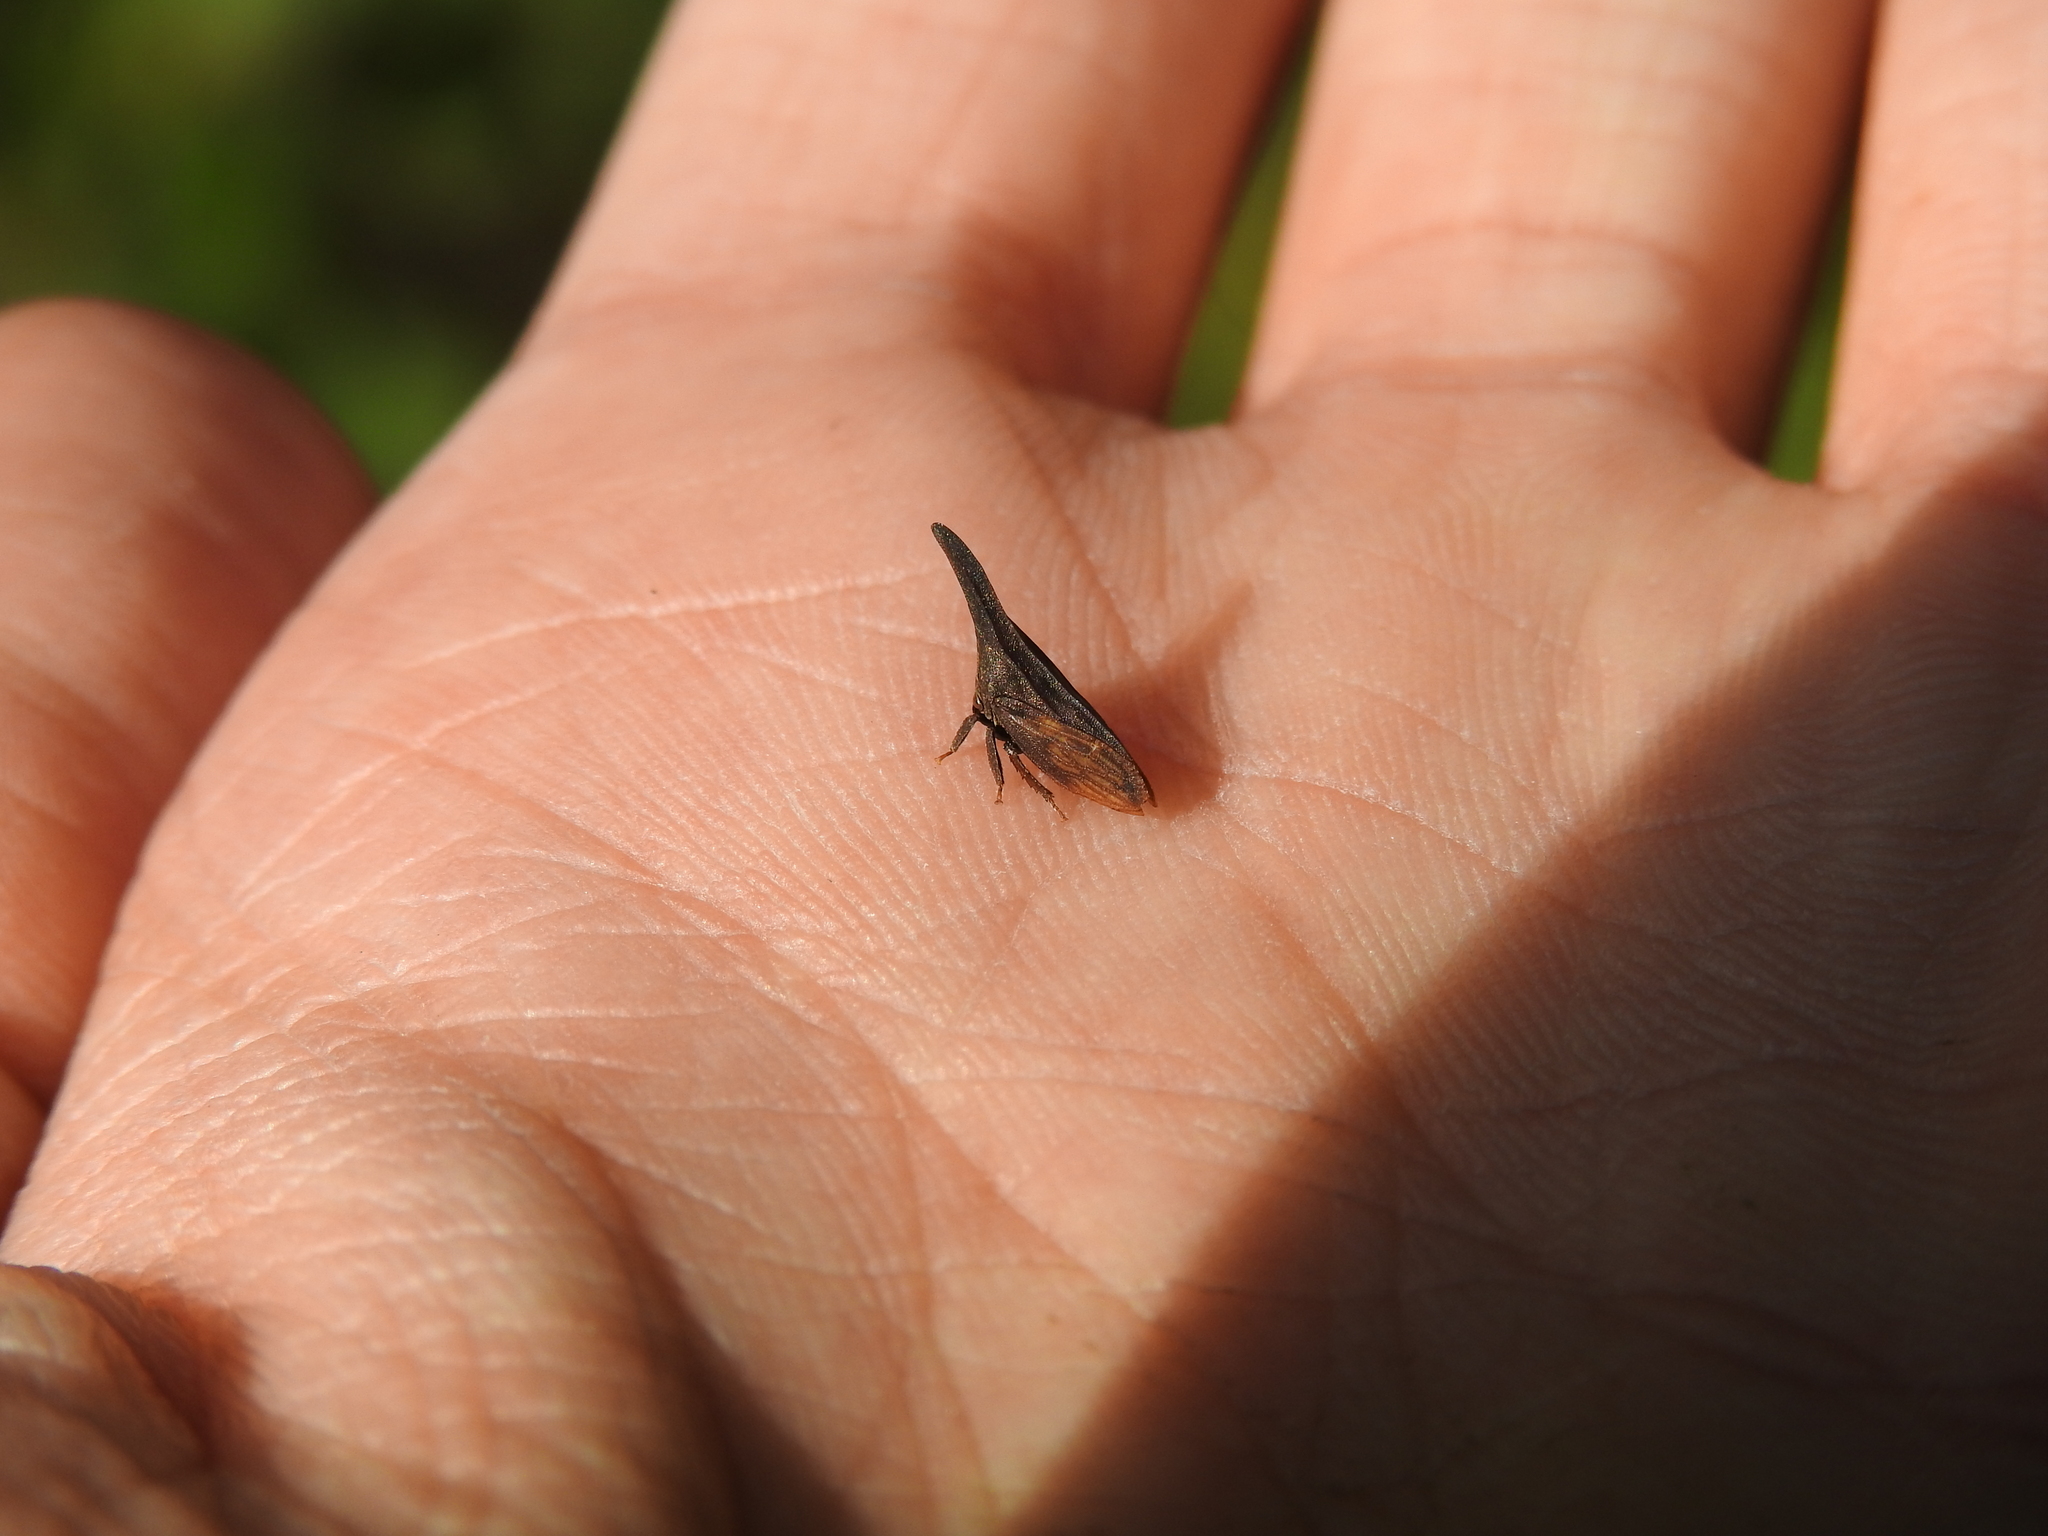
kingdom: Animalia
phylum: Arthropoda
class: Insecta
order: Hemiptera
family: Membracidae
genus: Enchenopa
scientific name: Enchenopa latipes
